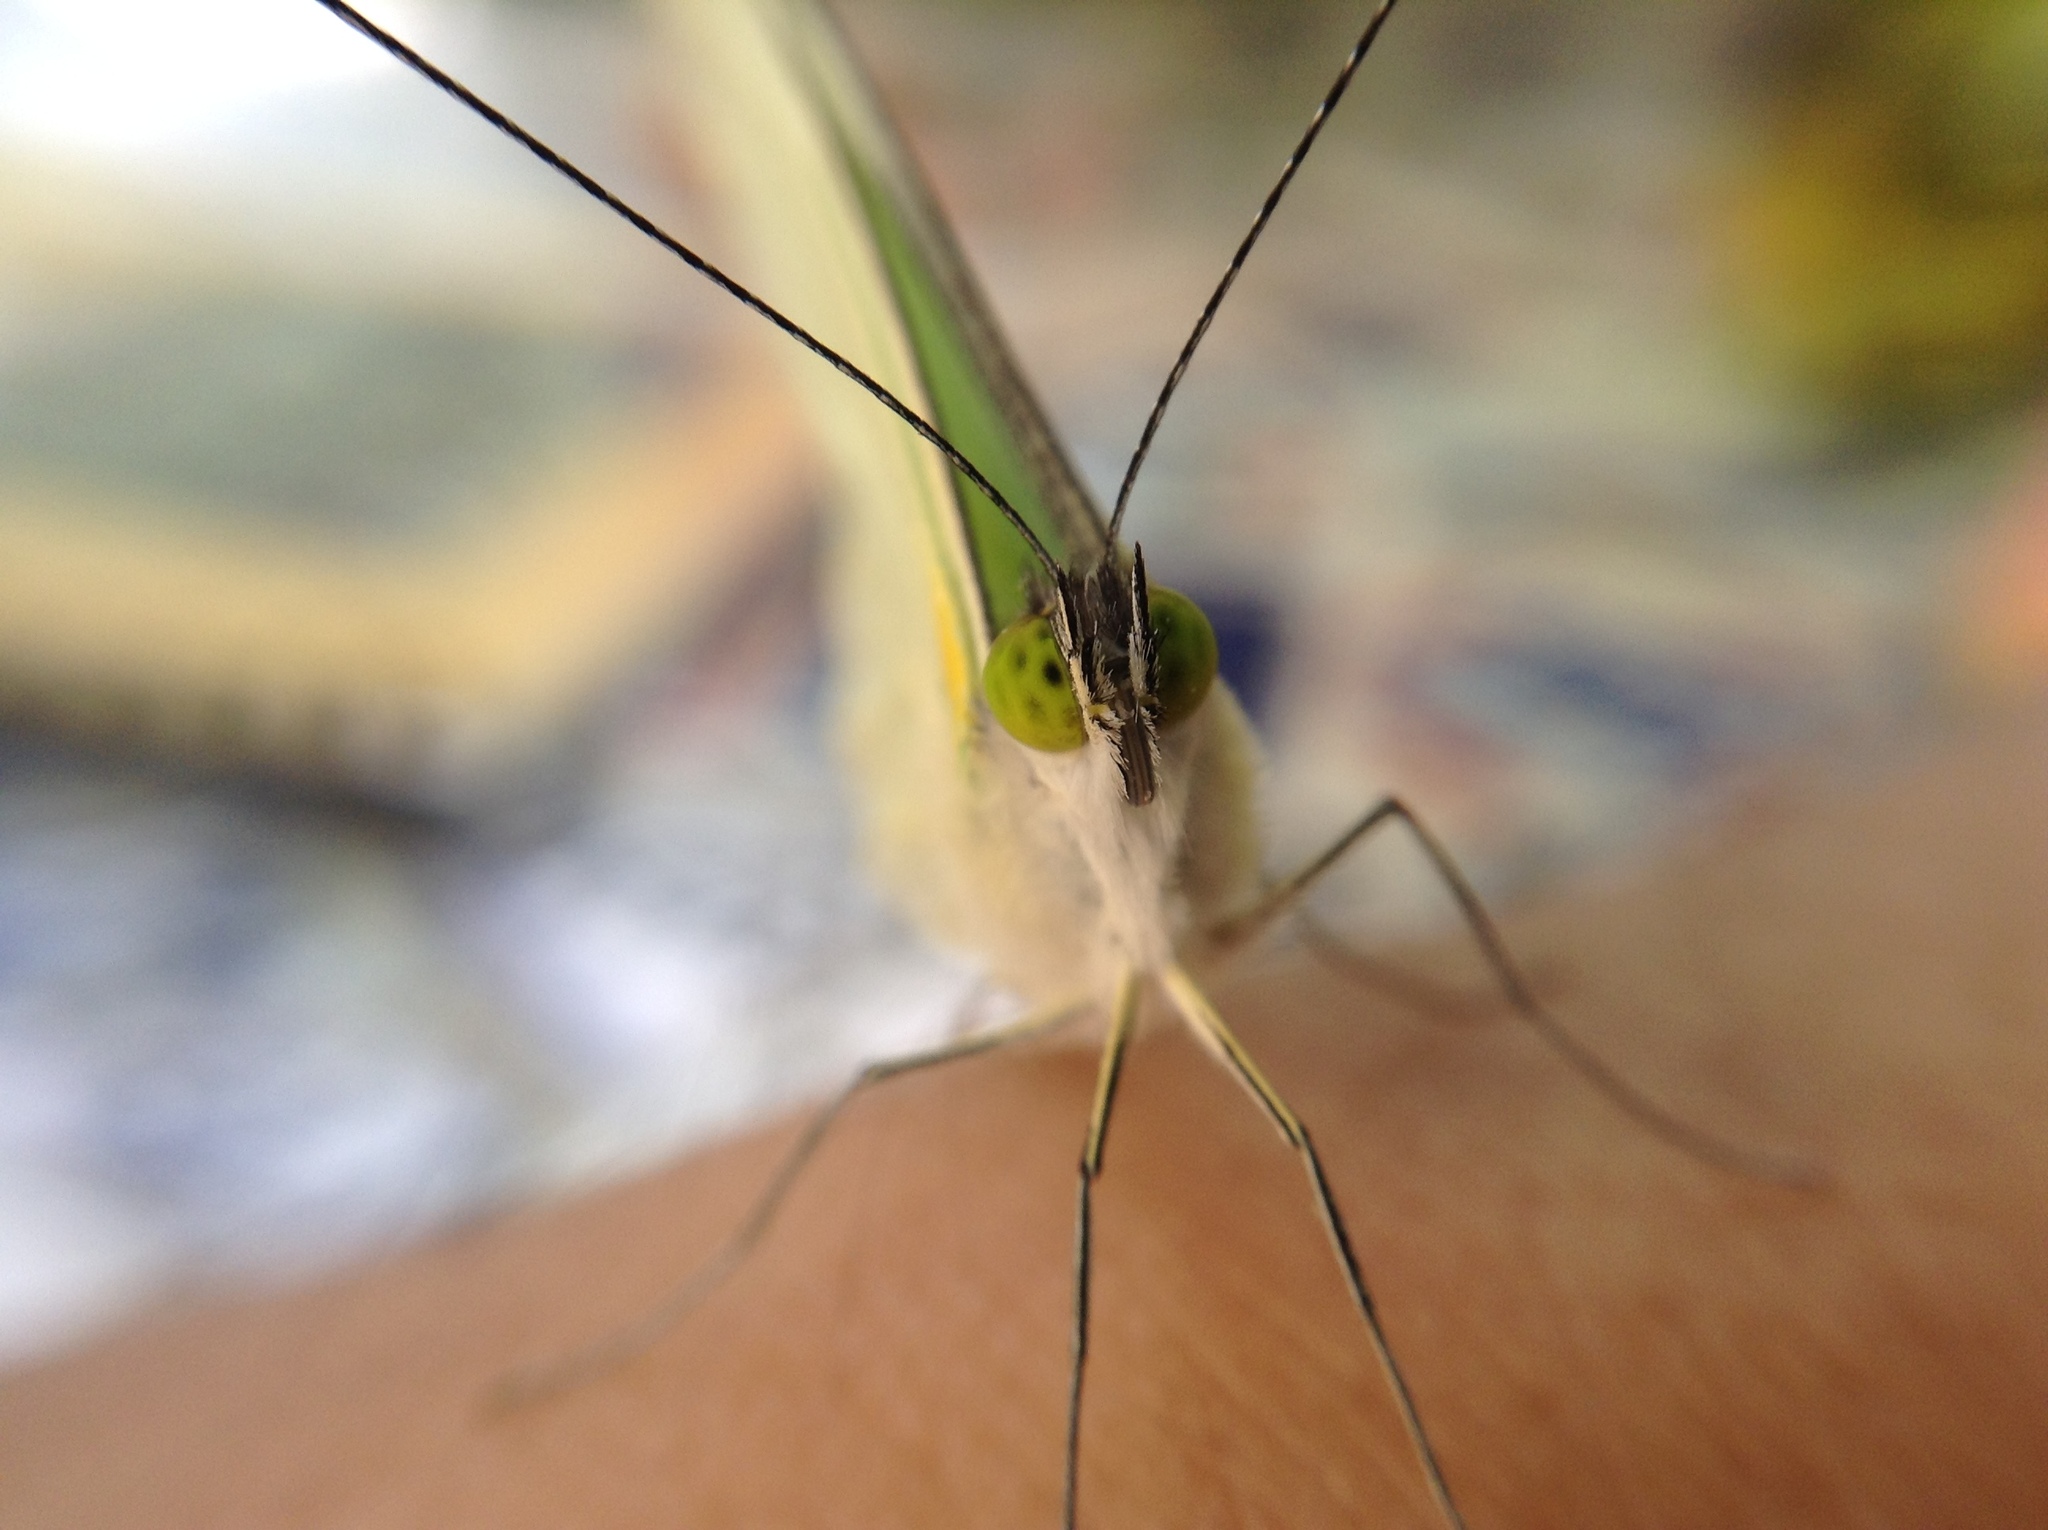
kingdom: Animalia
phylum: Arthropoda
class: Insecta
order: Lepidoptera
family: Pieridae
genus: Leptophobia
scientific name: Leptophobia aripa
